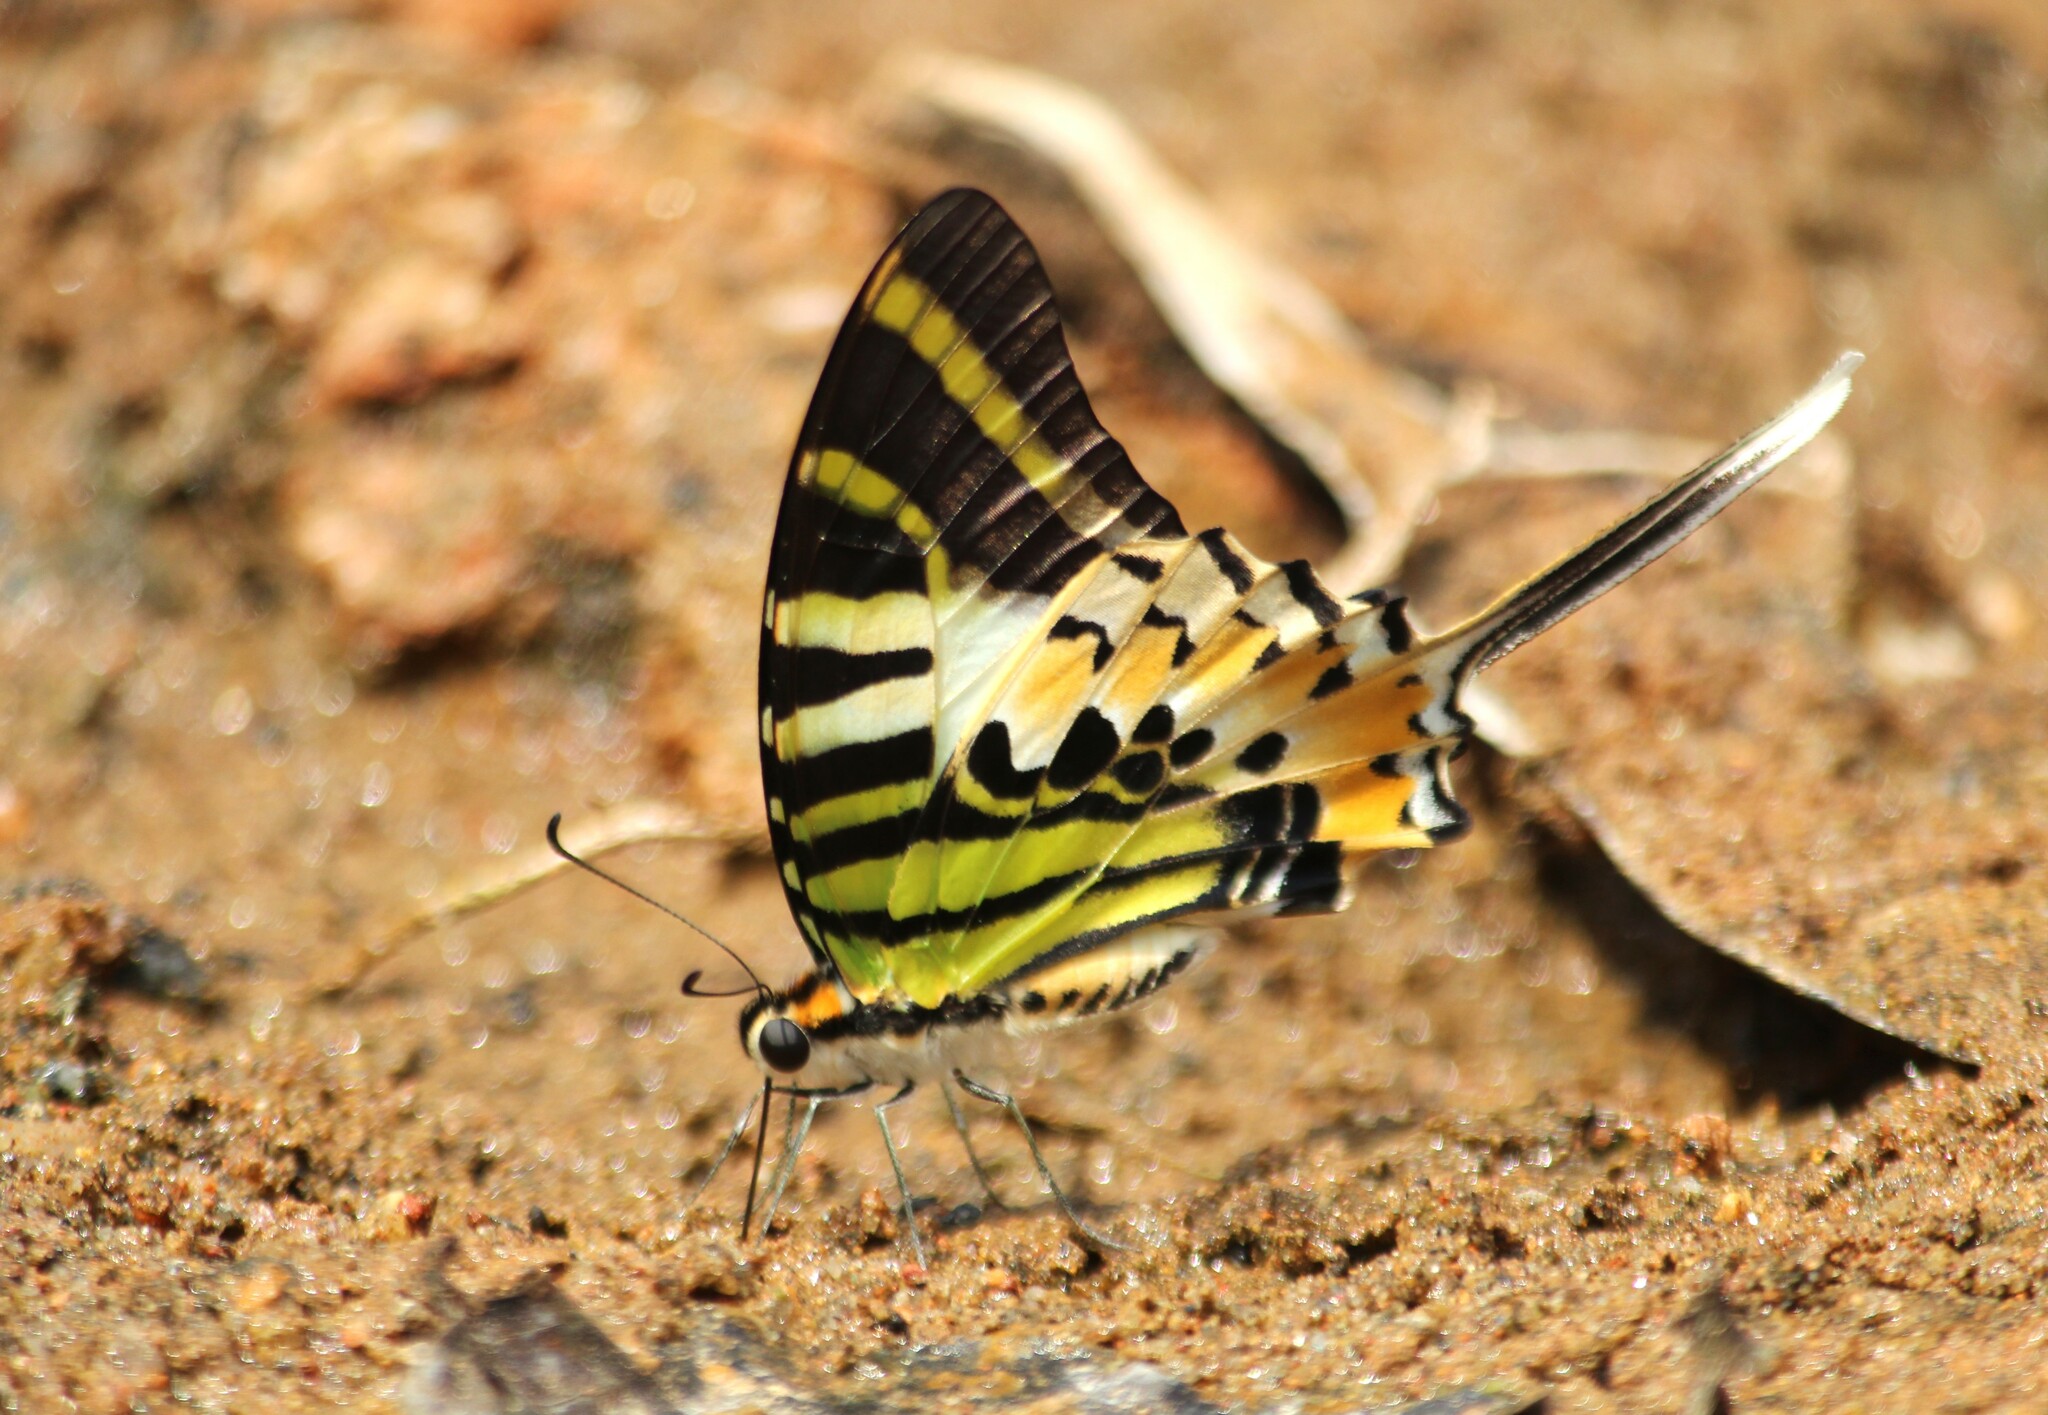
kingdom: Animalia
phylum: Arthropoda
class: Insecta
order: Lepidoptera
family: Papilionidae
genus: Graphium
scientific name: Graphium antiphates
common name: Fivebar swordtail
